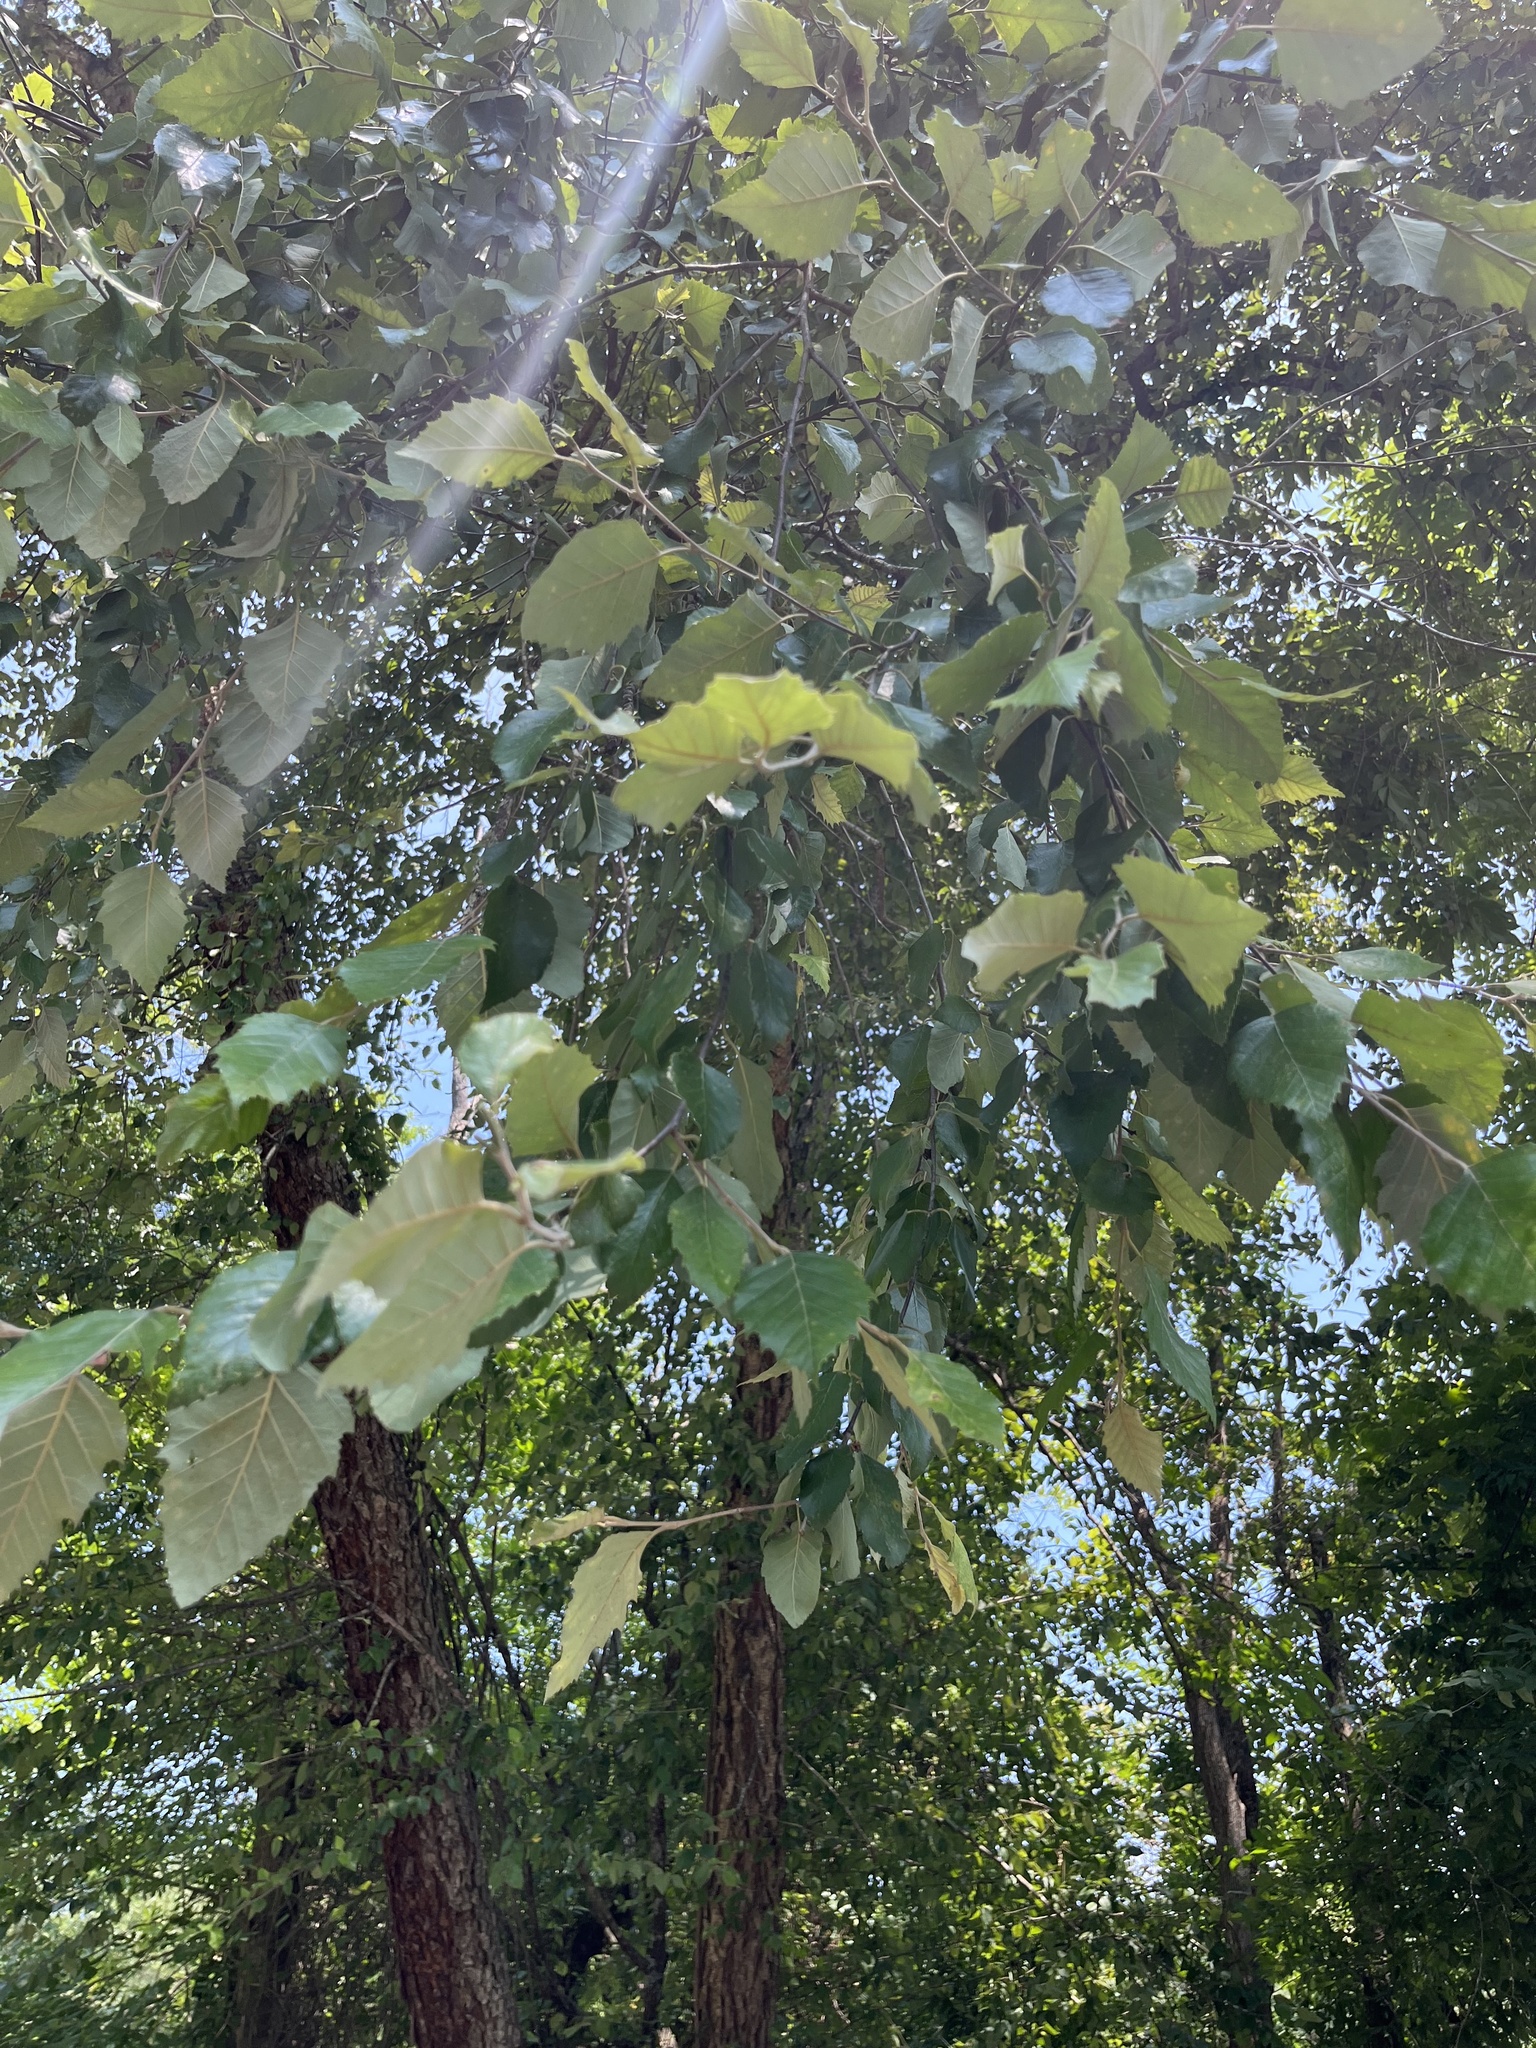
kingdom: Plantae
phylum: Tracheophyta
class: Magnoliopsida
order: Fagales
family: Betulaceae
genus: Betula
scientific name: Betula nigra
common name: Black birch
